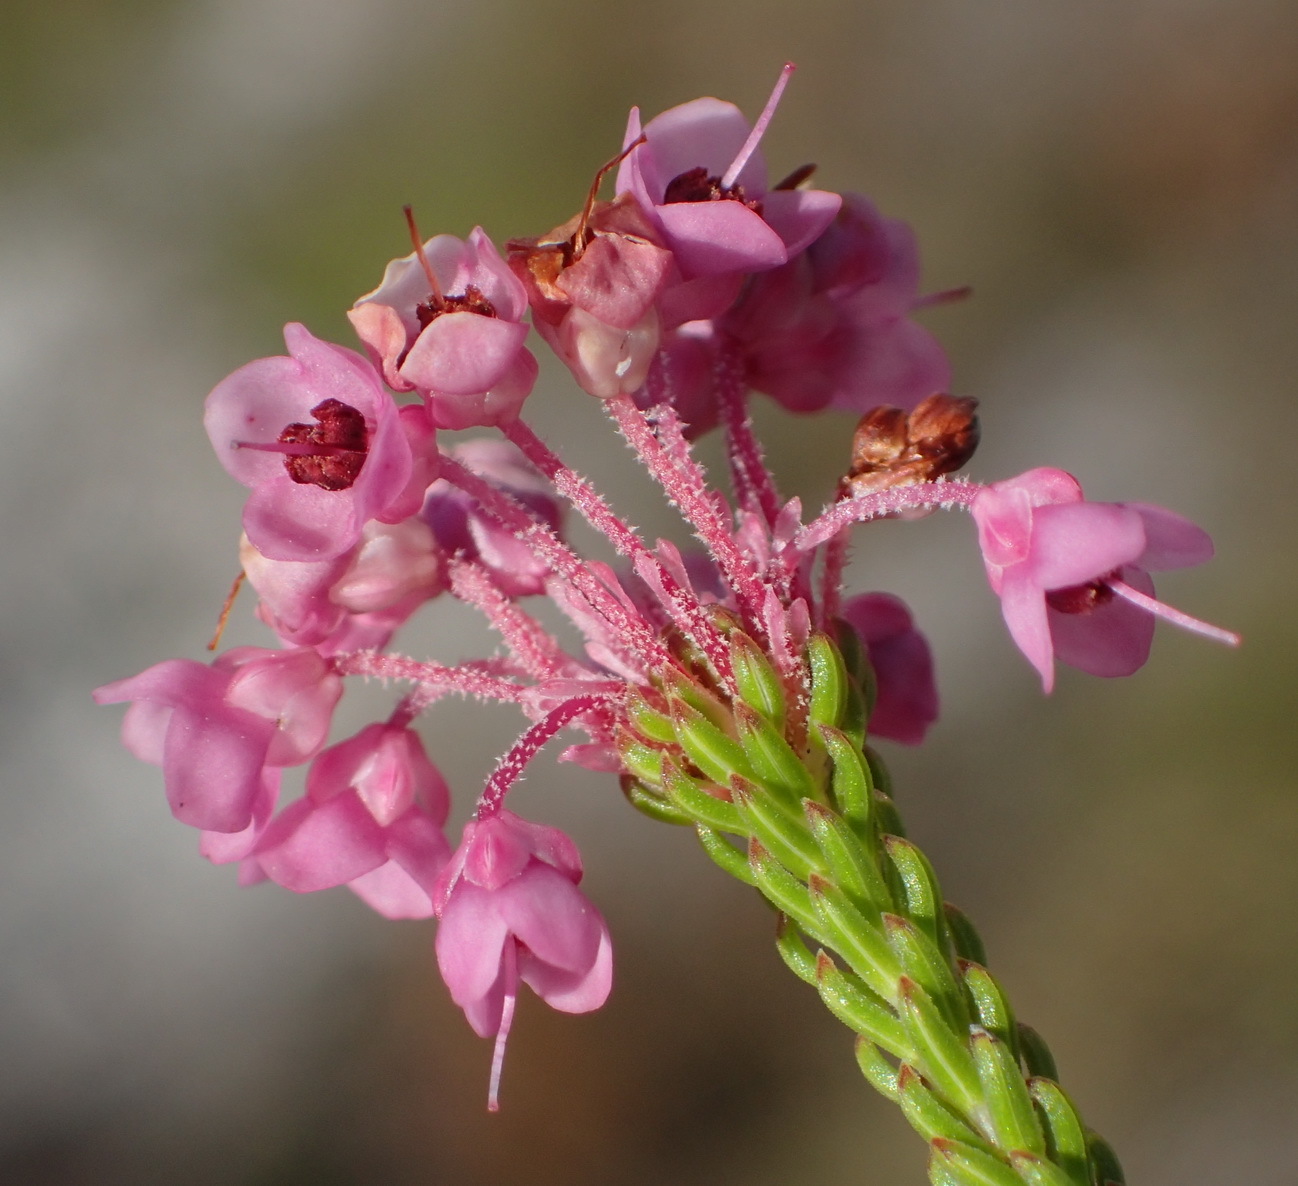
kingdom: Plantae
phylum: Tracheophyta
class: Magnoliopsida
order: Ericales
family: Ericaceae
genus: Erica
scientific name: Erica seriphiifolia
